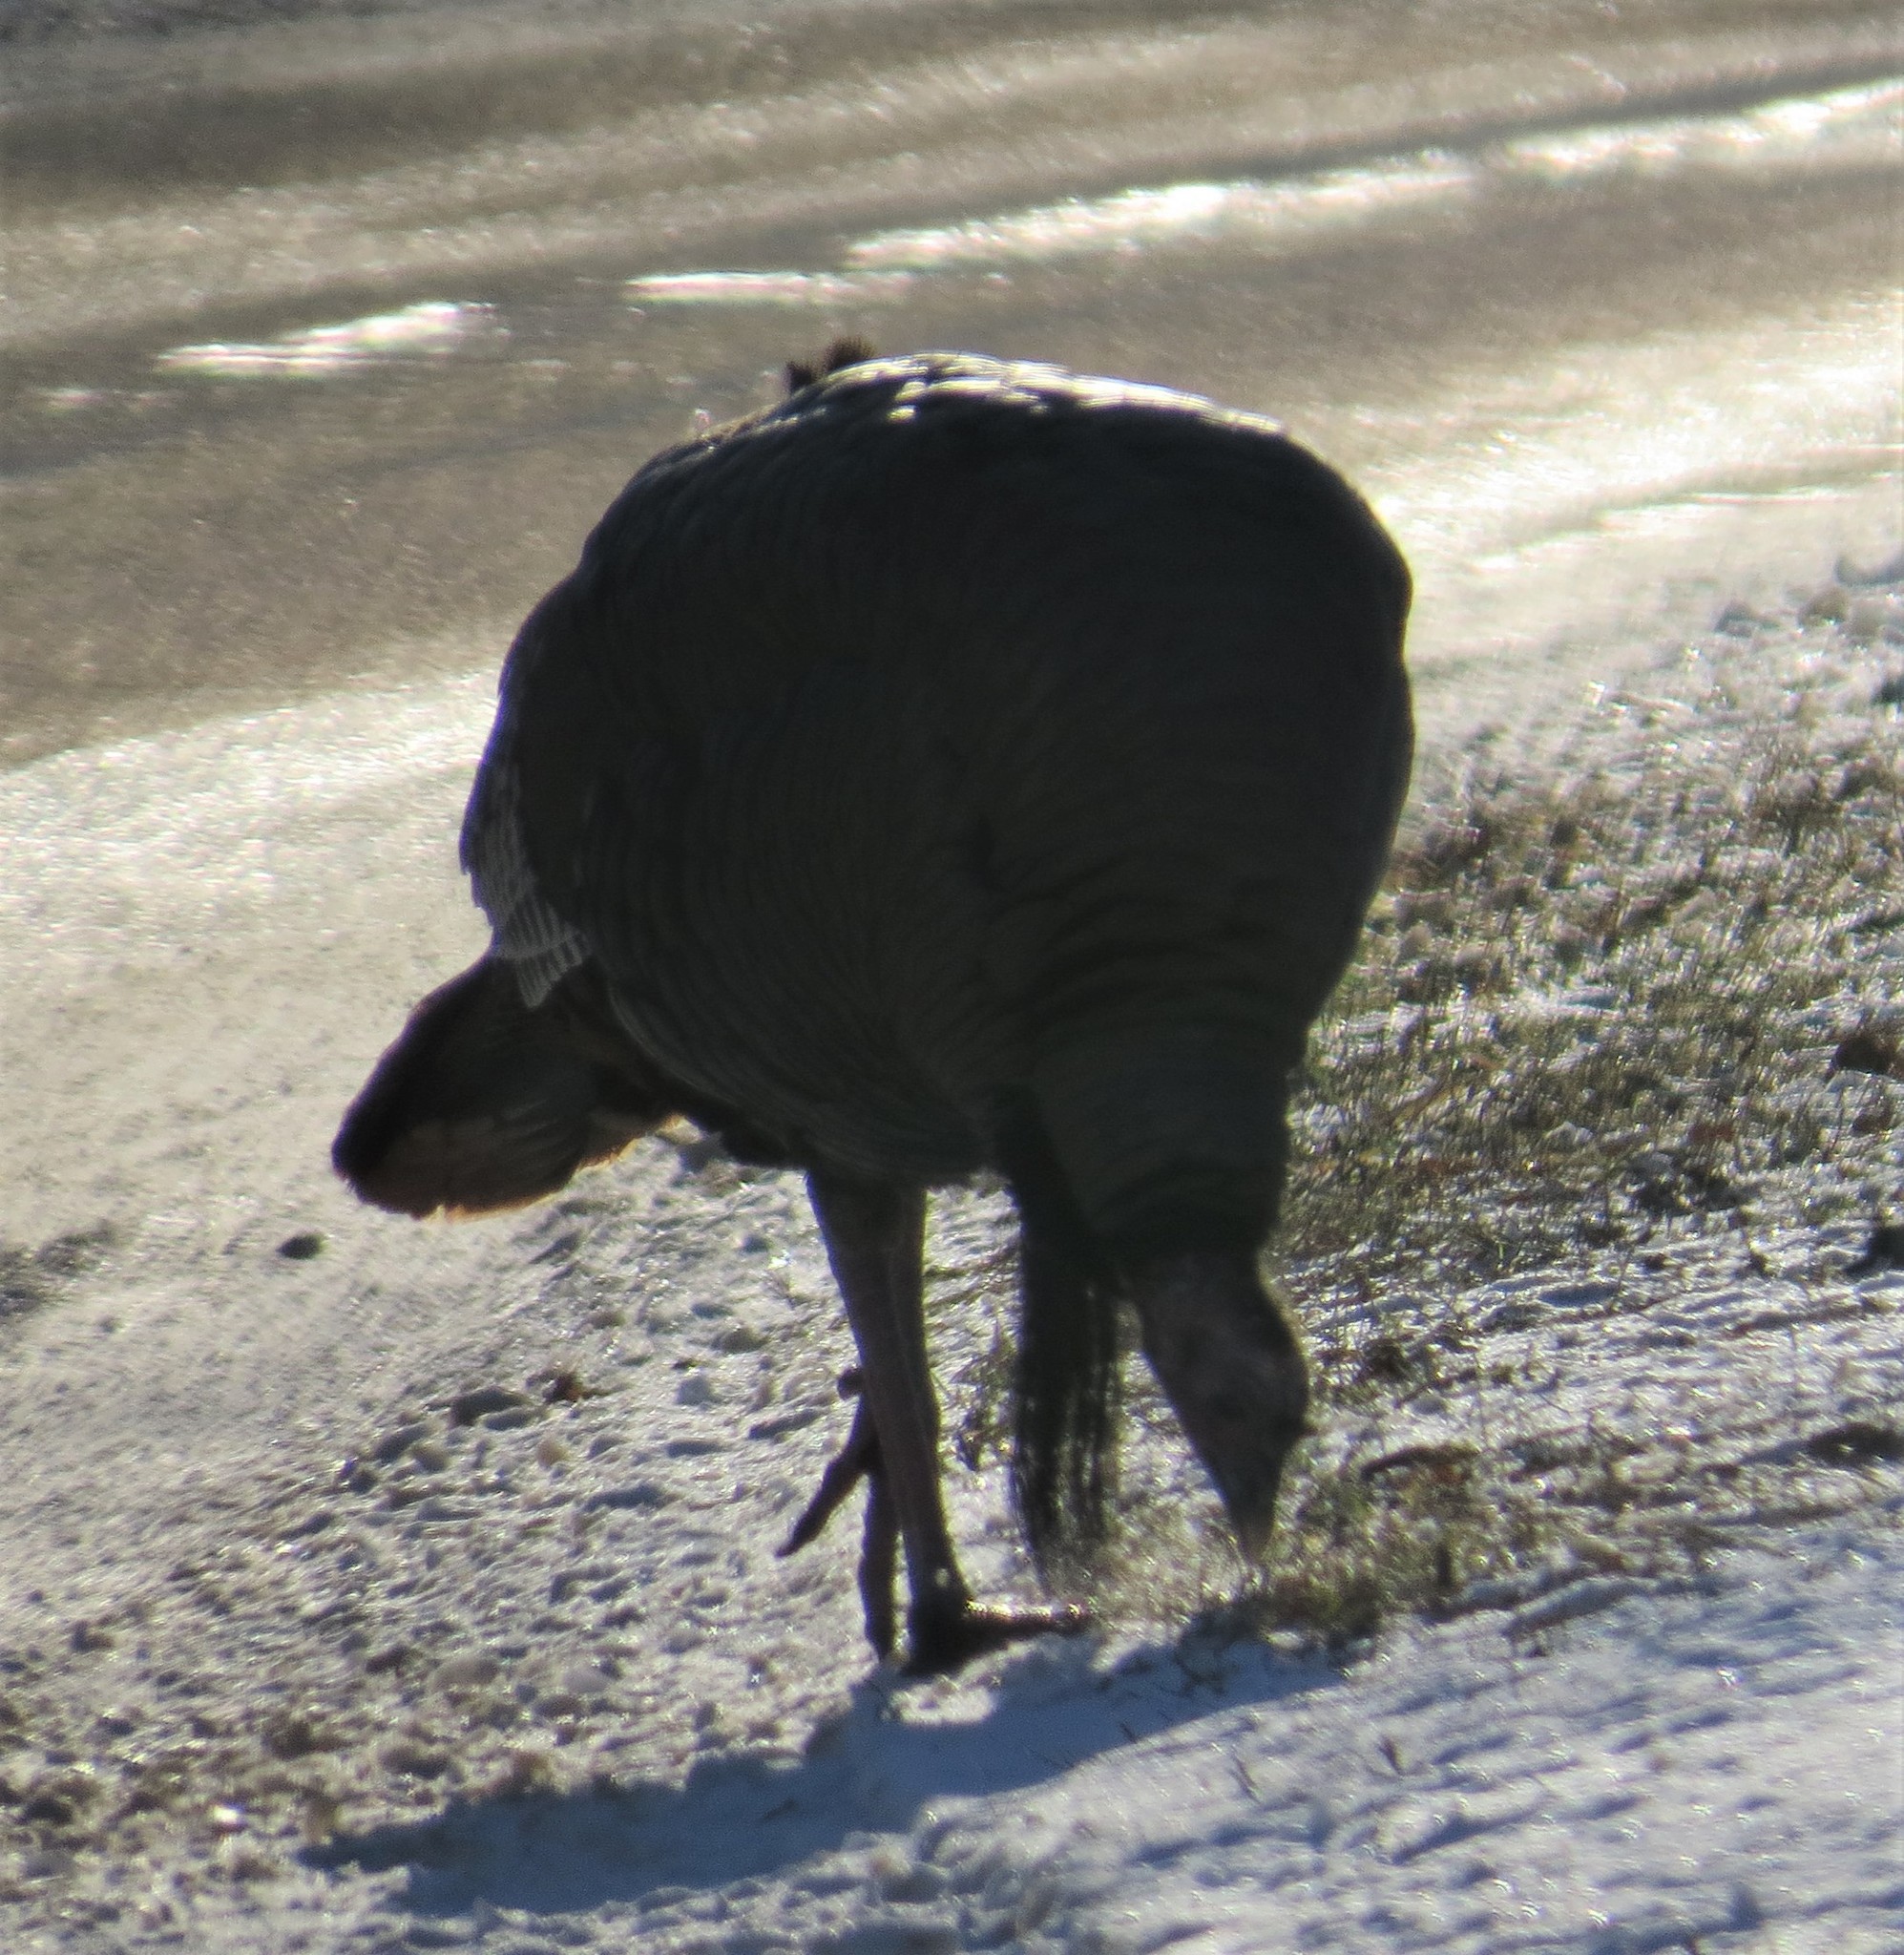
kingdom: Animalia
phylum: Chordata
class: Aves
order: Galliformes
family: Phasianidae
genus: Meleagris
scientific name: Meleagris gallopavo
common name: Wild turkey
